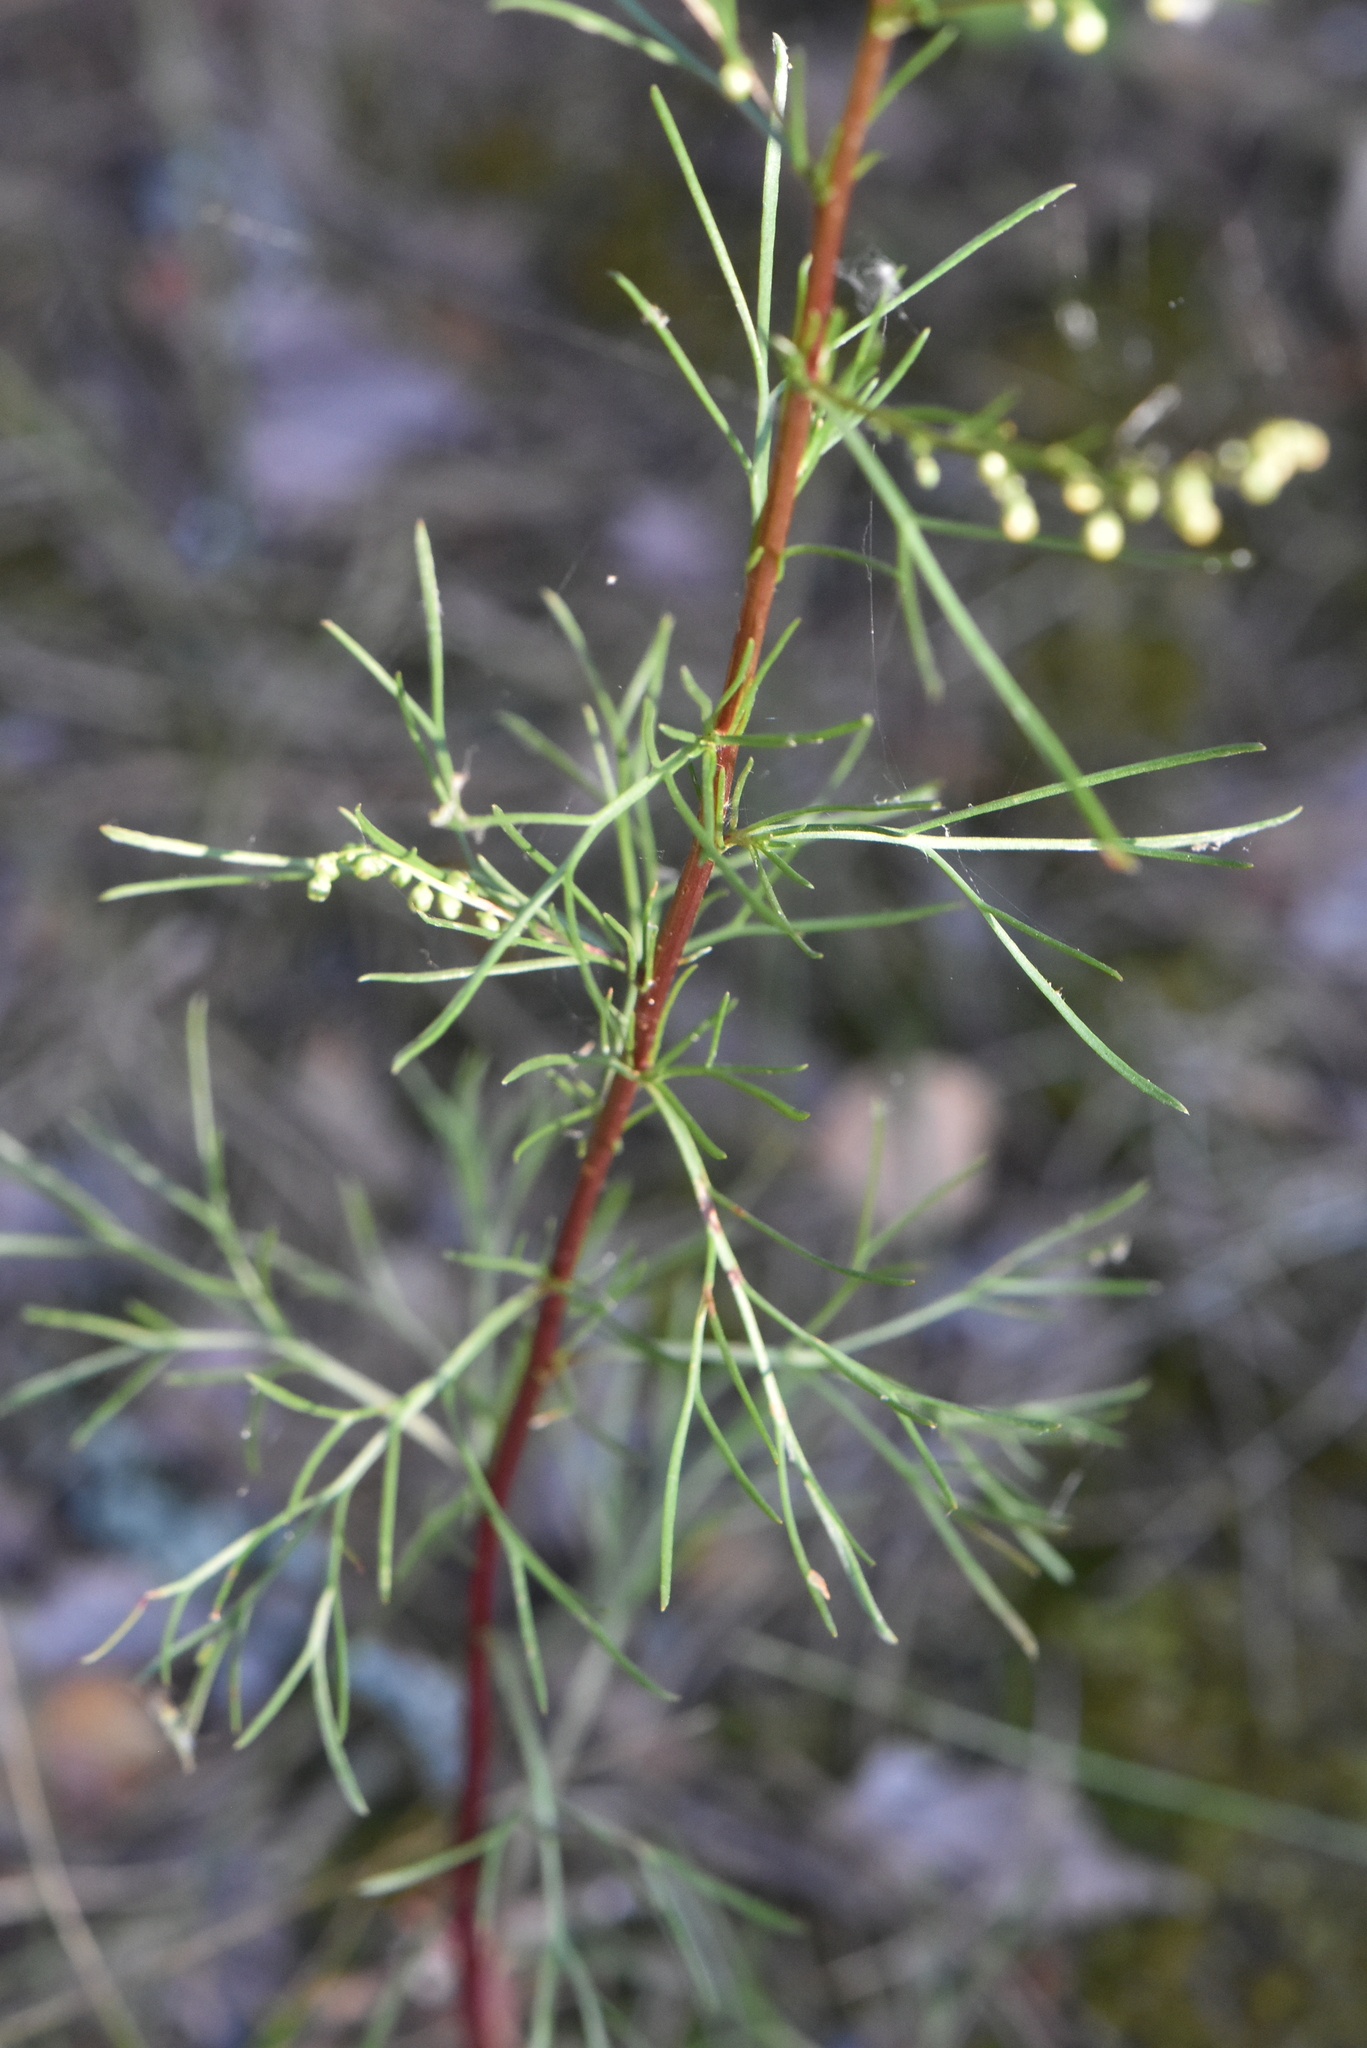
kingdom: Plantae
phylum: Tracheophyta
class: Magnoliopsida
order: Asterales
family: Asteraceae
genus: Artemisia
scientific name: Artemisia campestris
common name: Field wormwood
